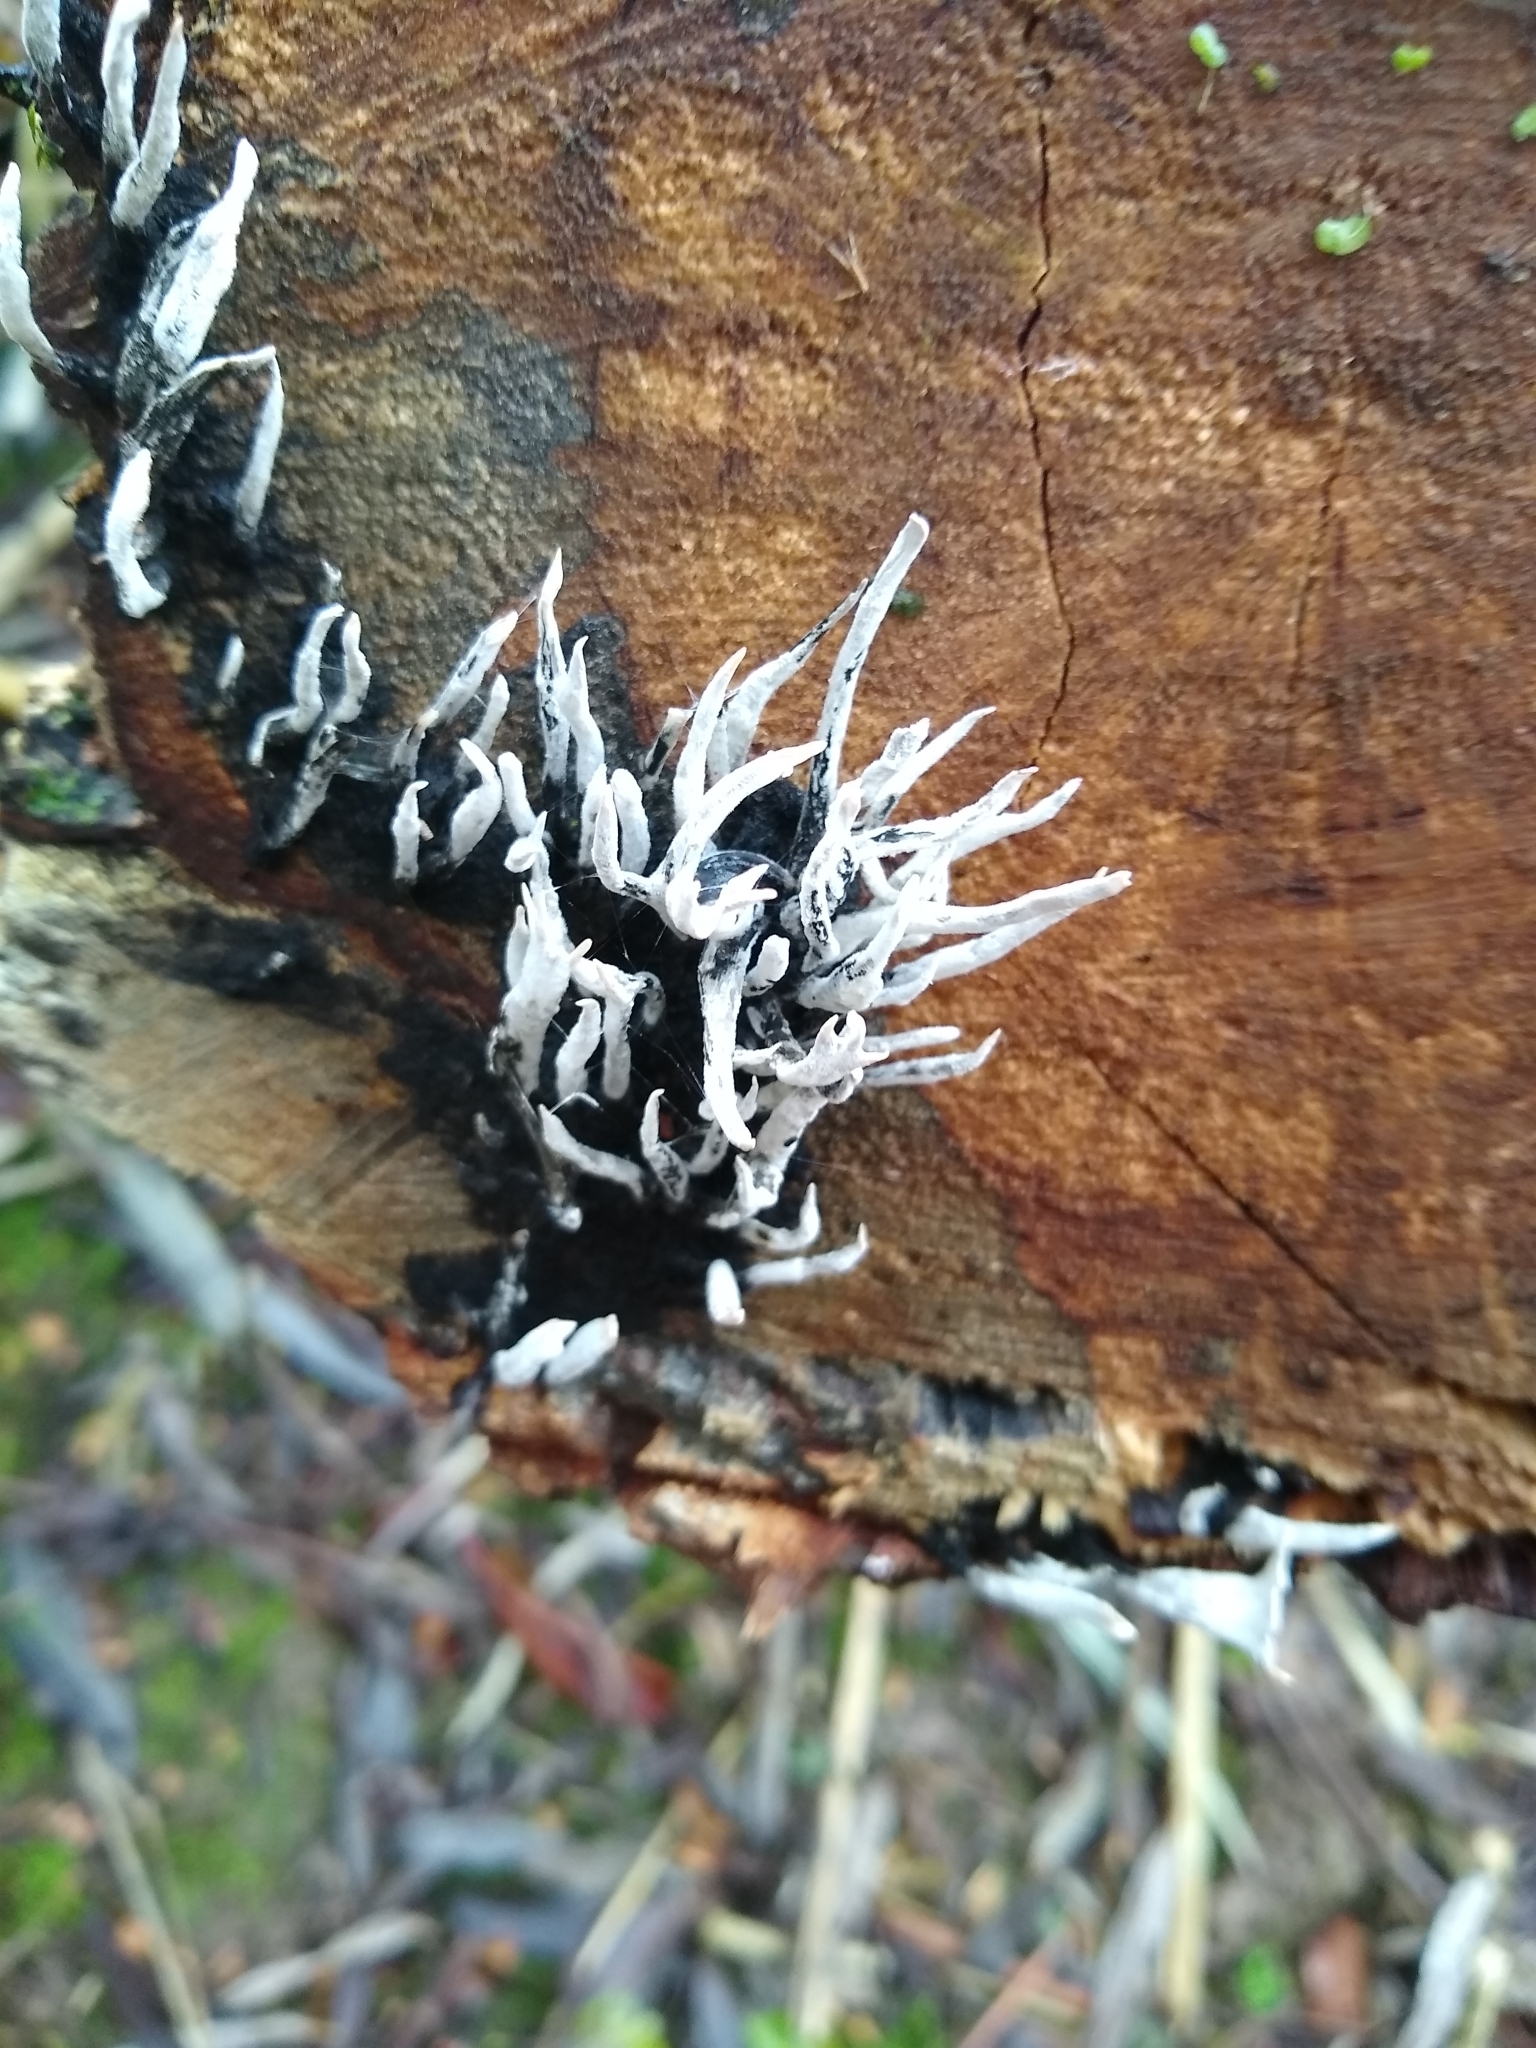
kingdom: Fungi
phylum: Ascomycota
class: Sordariomycetes
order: Xylariales
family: Xylariaceae
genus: Xylaria
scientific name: Xylaria hypoxylon
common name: Candle-snuff fungus
